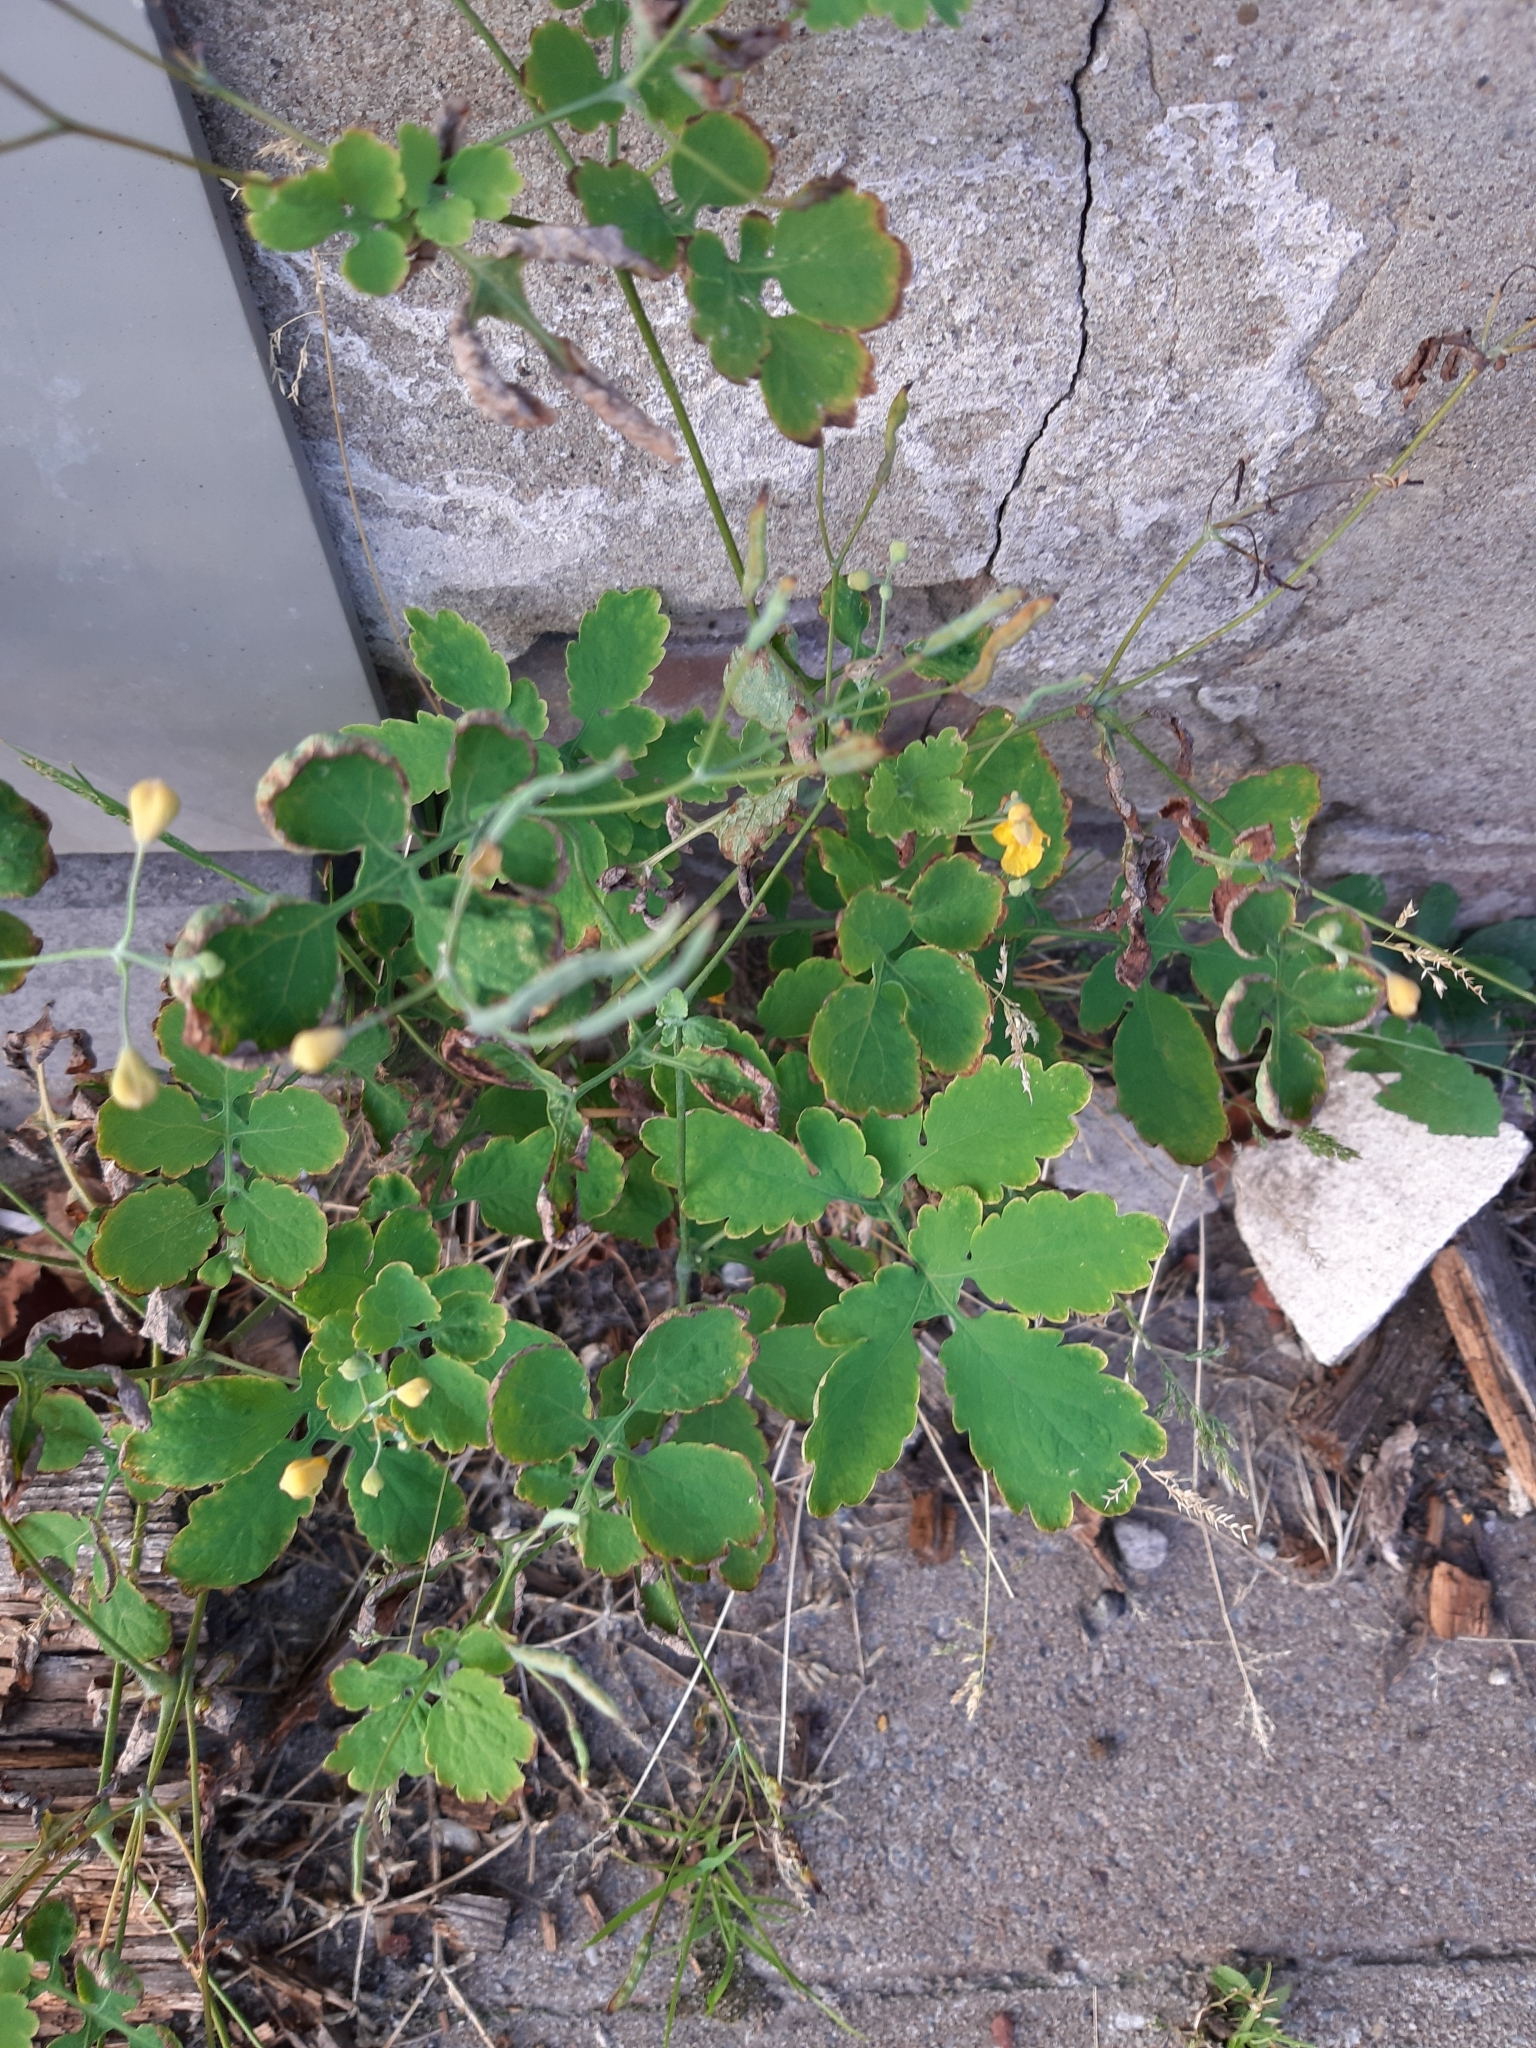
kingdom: Plantae
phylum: Tracheophyta
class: Magnoliopsida
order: Ranunculales
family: Papaveraceae
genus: Chelidonium
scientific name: Chelidonium majus
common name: Greater celandine
